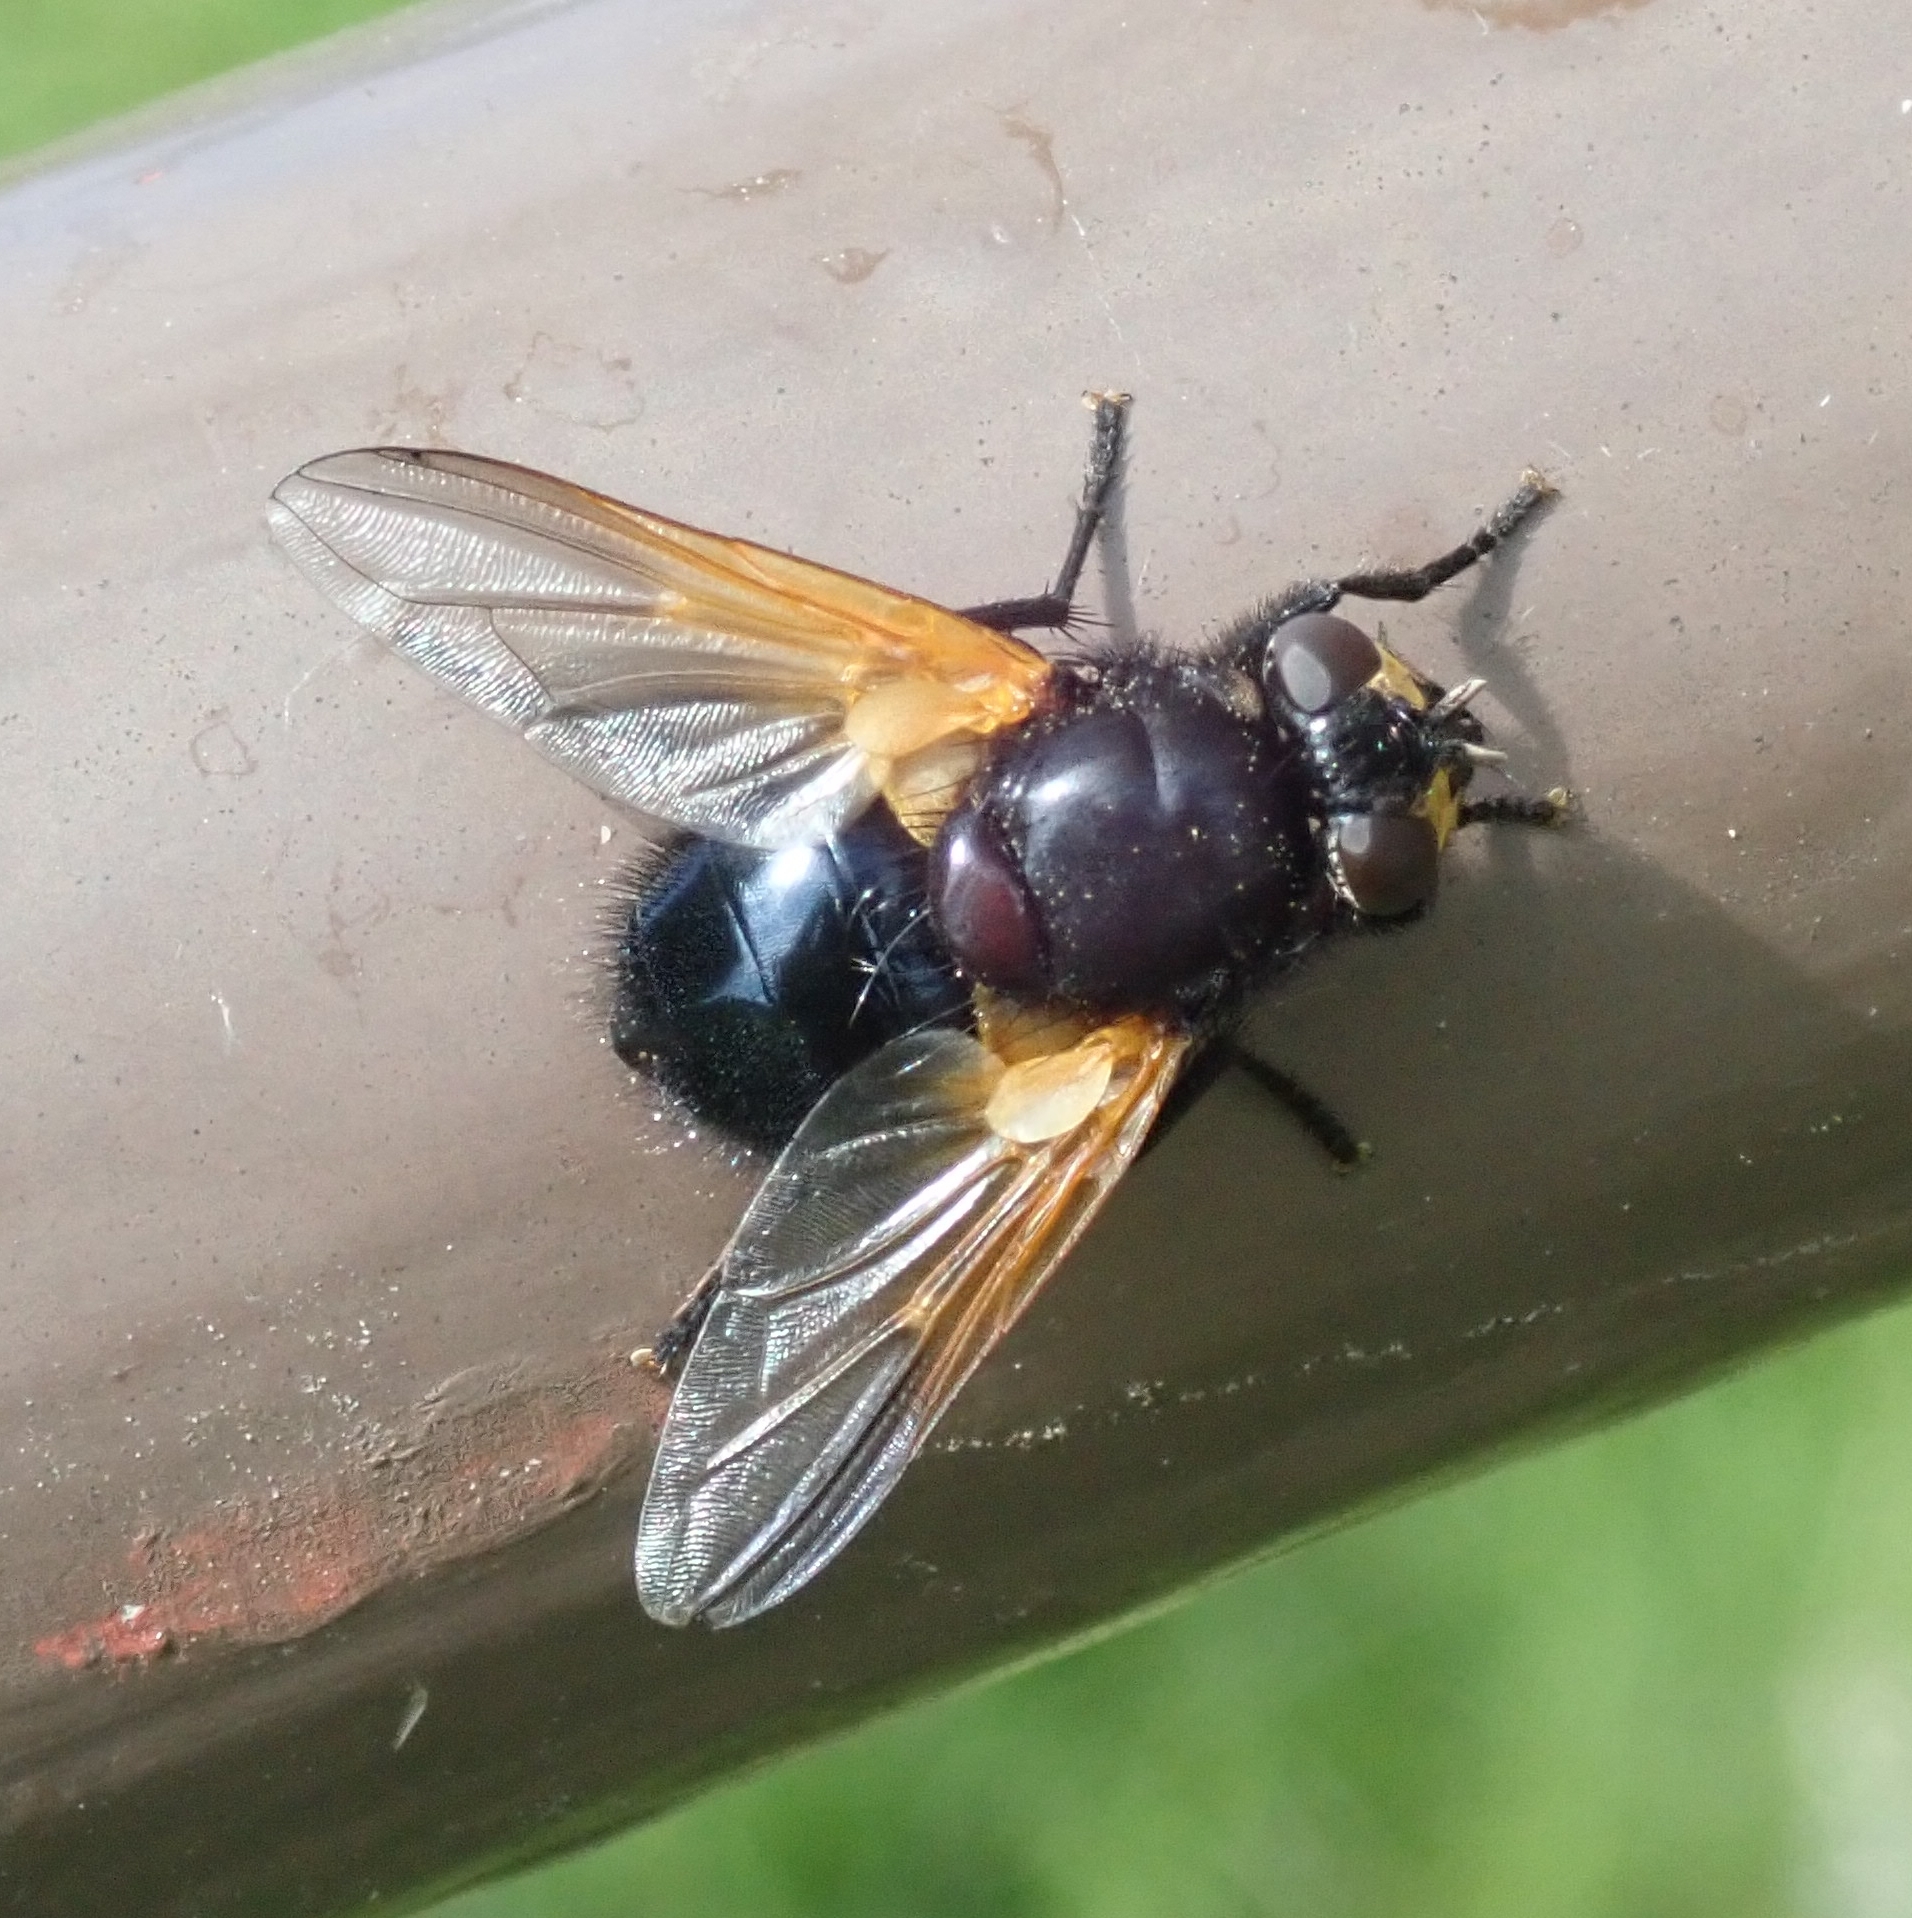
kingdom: Animalia
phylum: Arthropoda
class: Insecta
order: Diptera
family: Muscidae
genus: Mesembrina
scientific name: Mesembrina meridiana
